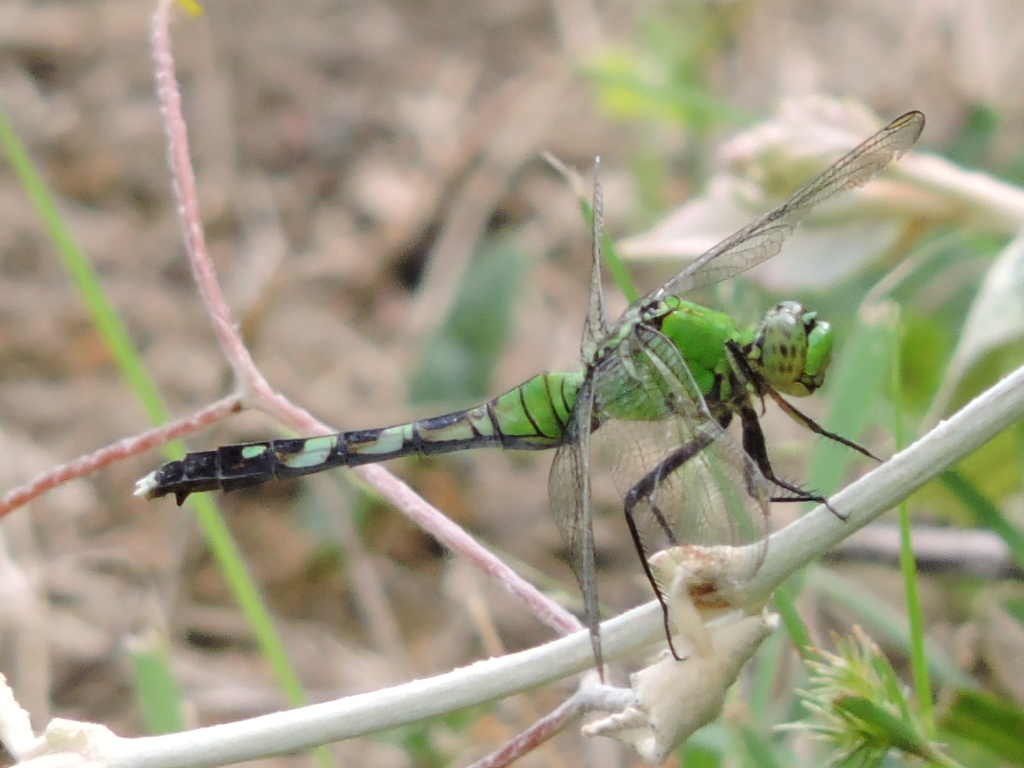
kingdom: Animalia
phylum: Arthropoda
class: Insecta
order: Odonata
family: Libellulidae
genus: Erythemis
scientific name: Erythemis simplicicollis
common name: Eastern pondhawk
